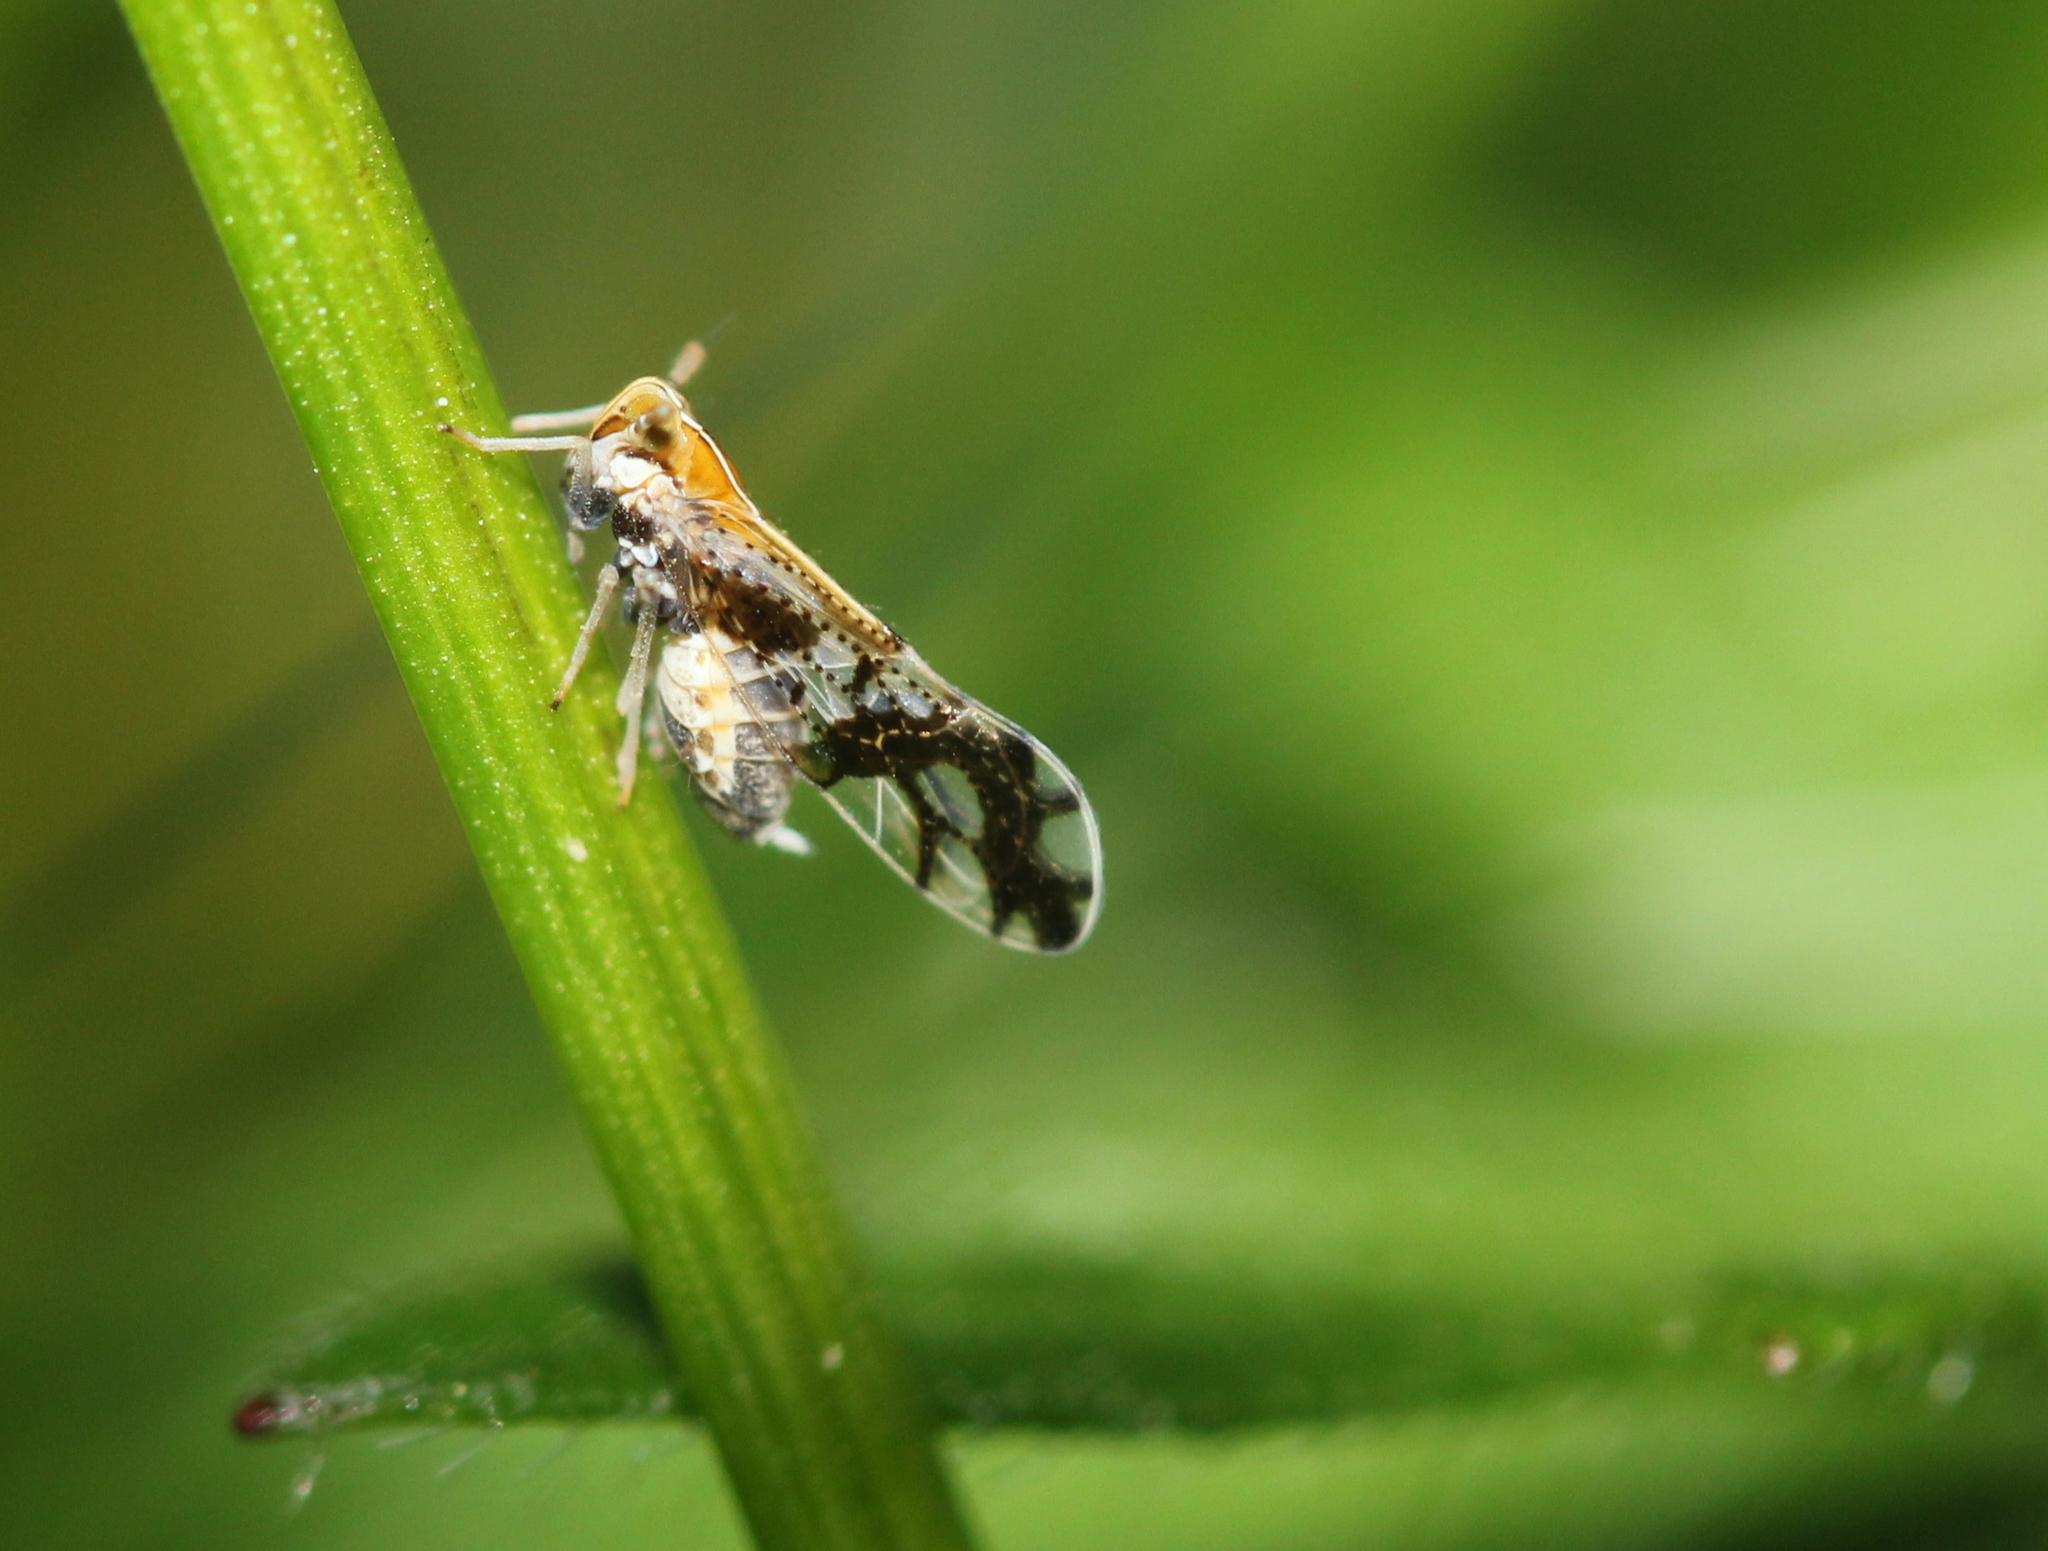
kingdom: Animalia
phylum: Arthropoda
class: Insecta
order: Hemiptera
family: Delphacidae
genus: Liburniella
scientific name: Liburniella ornata
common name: Ornate planthopper
